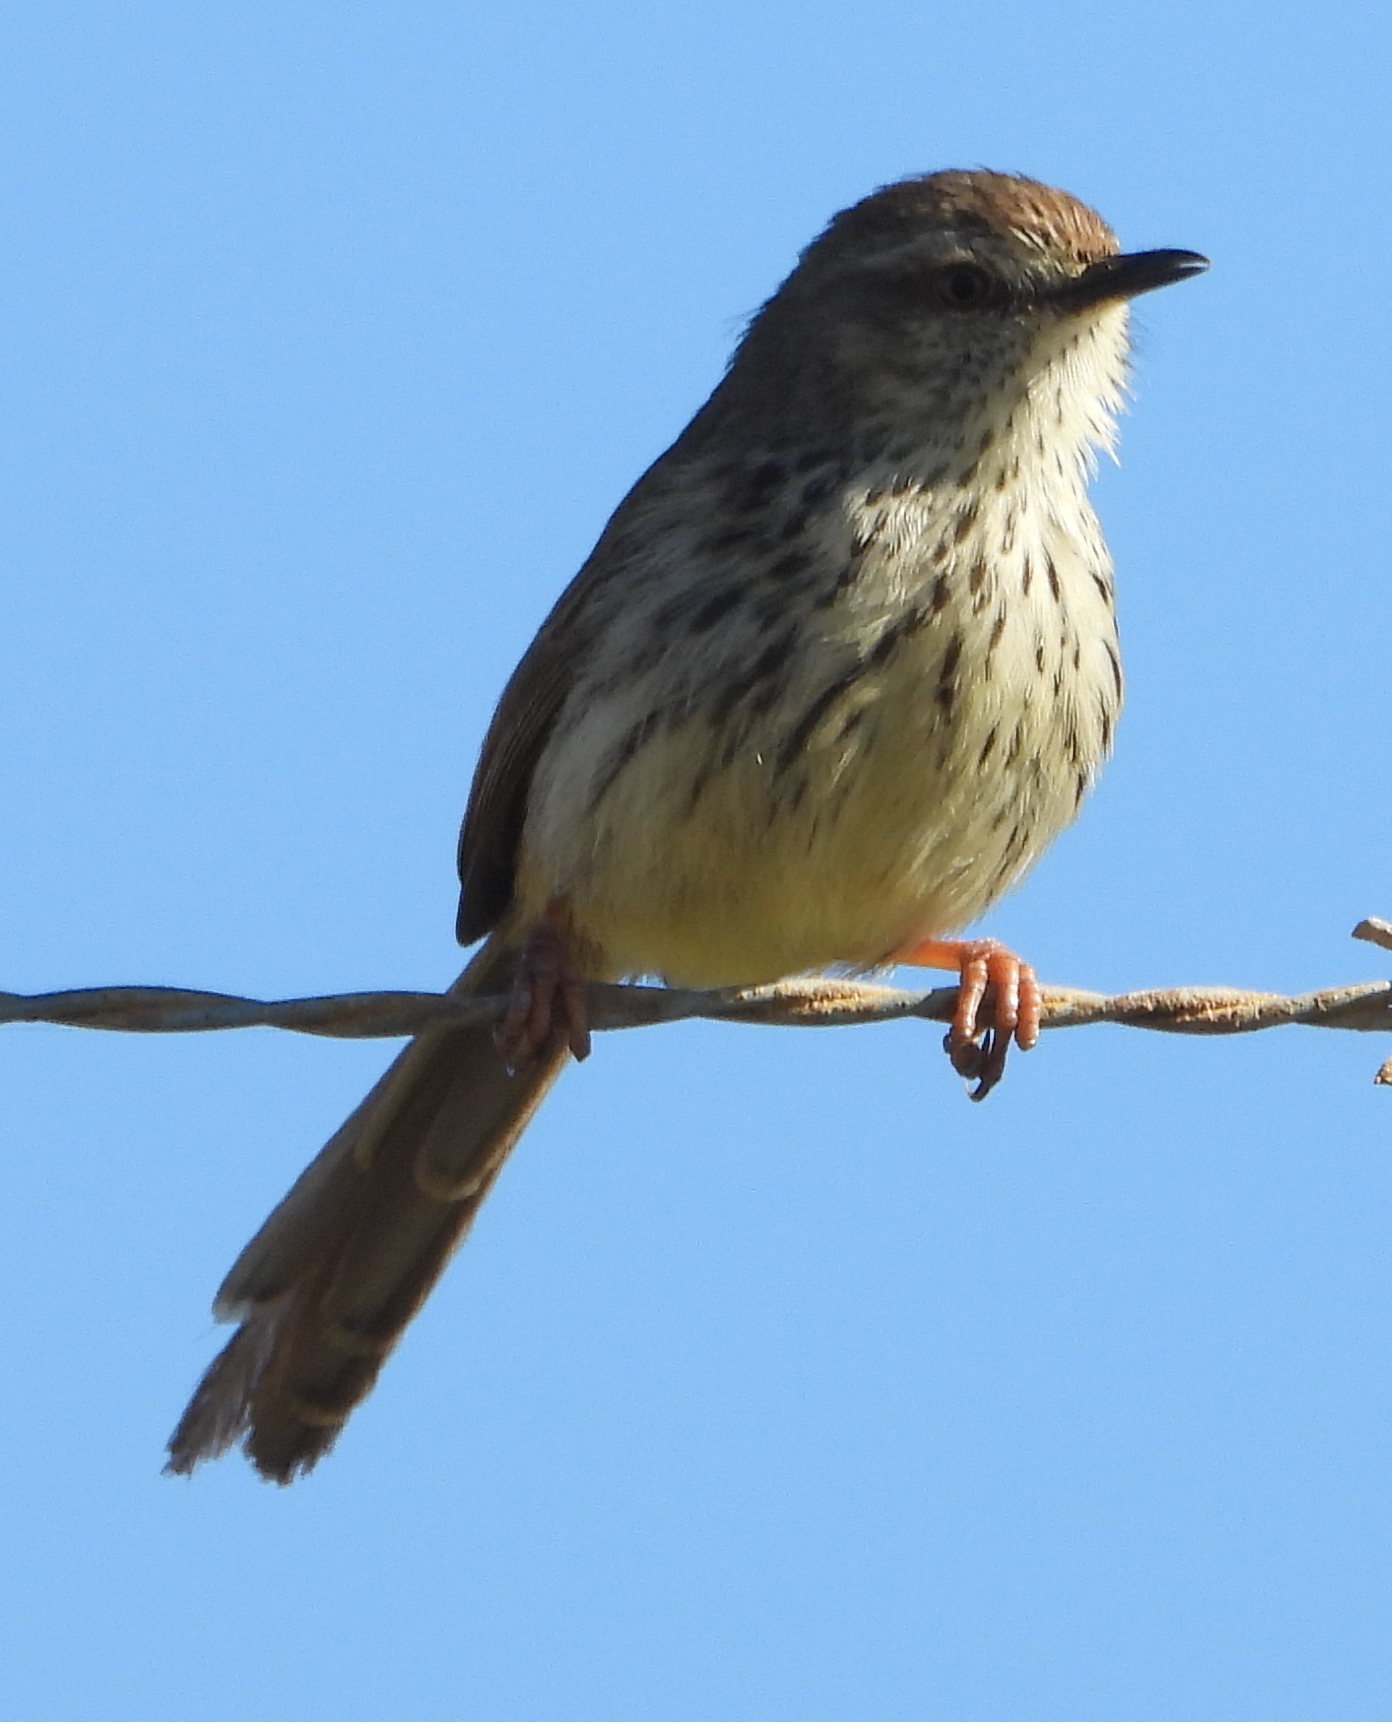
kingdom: Animalia
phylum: Chordata
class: Aves
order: Passeriformes
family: Cisticolidae
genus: Prinia
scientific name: Prinia maculosa
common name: Karoo prinia
